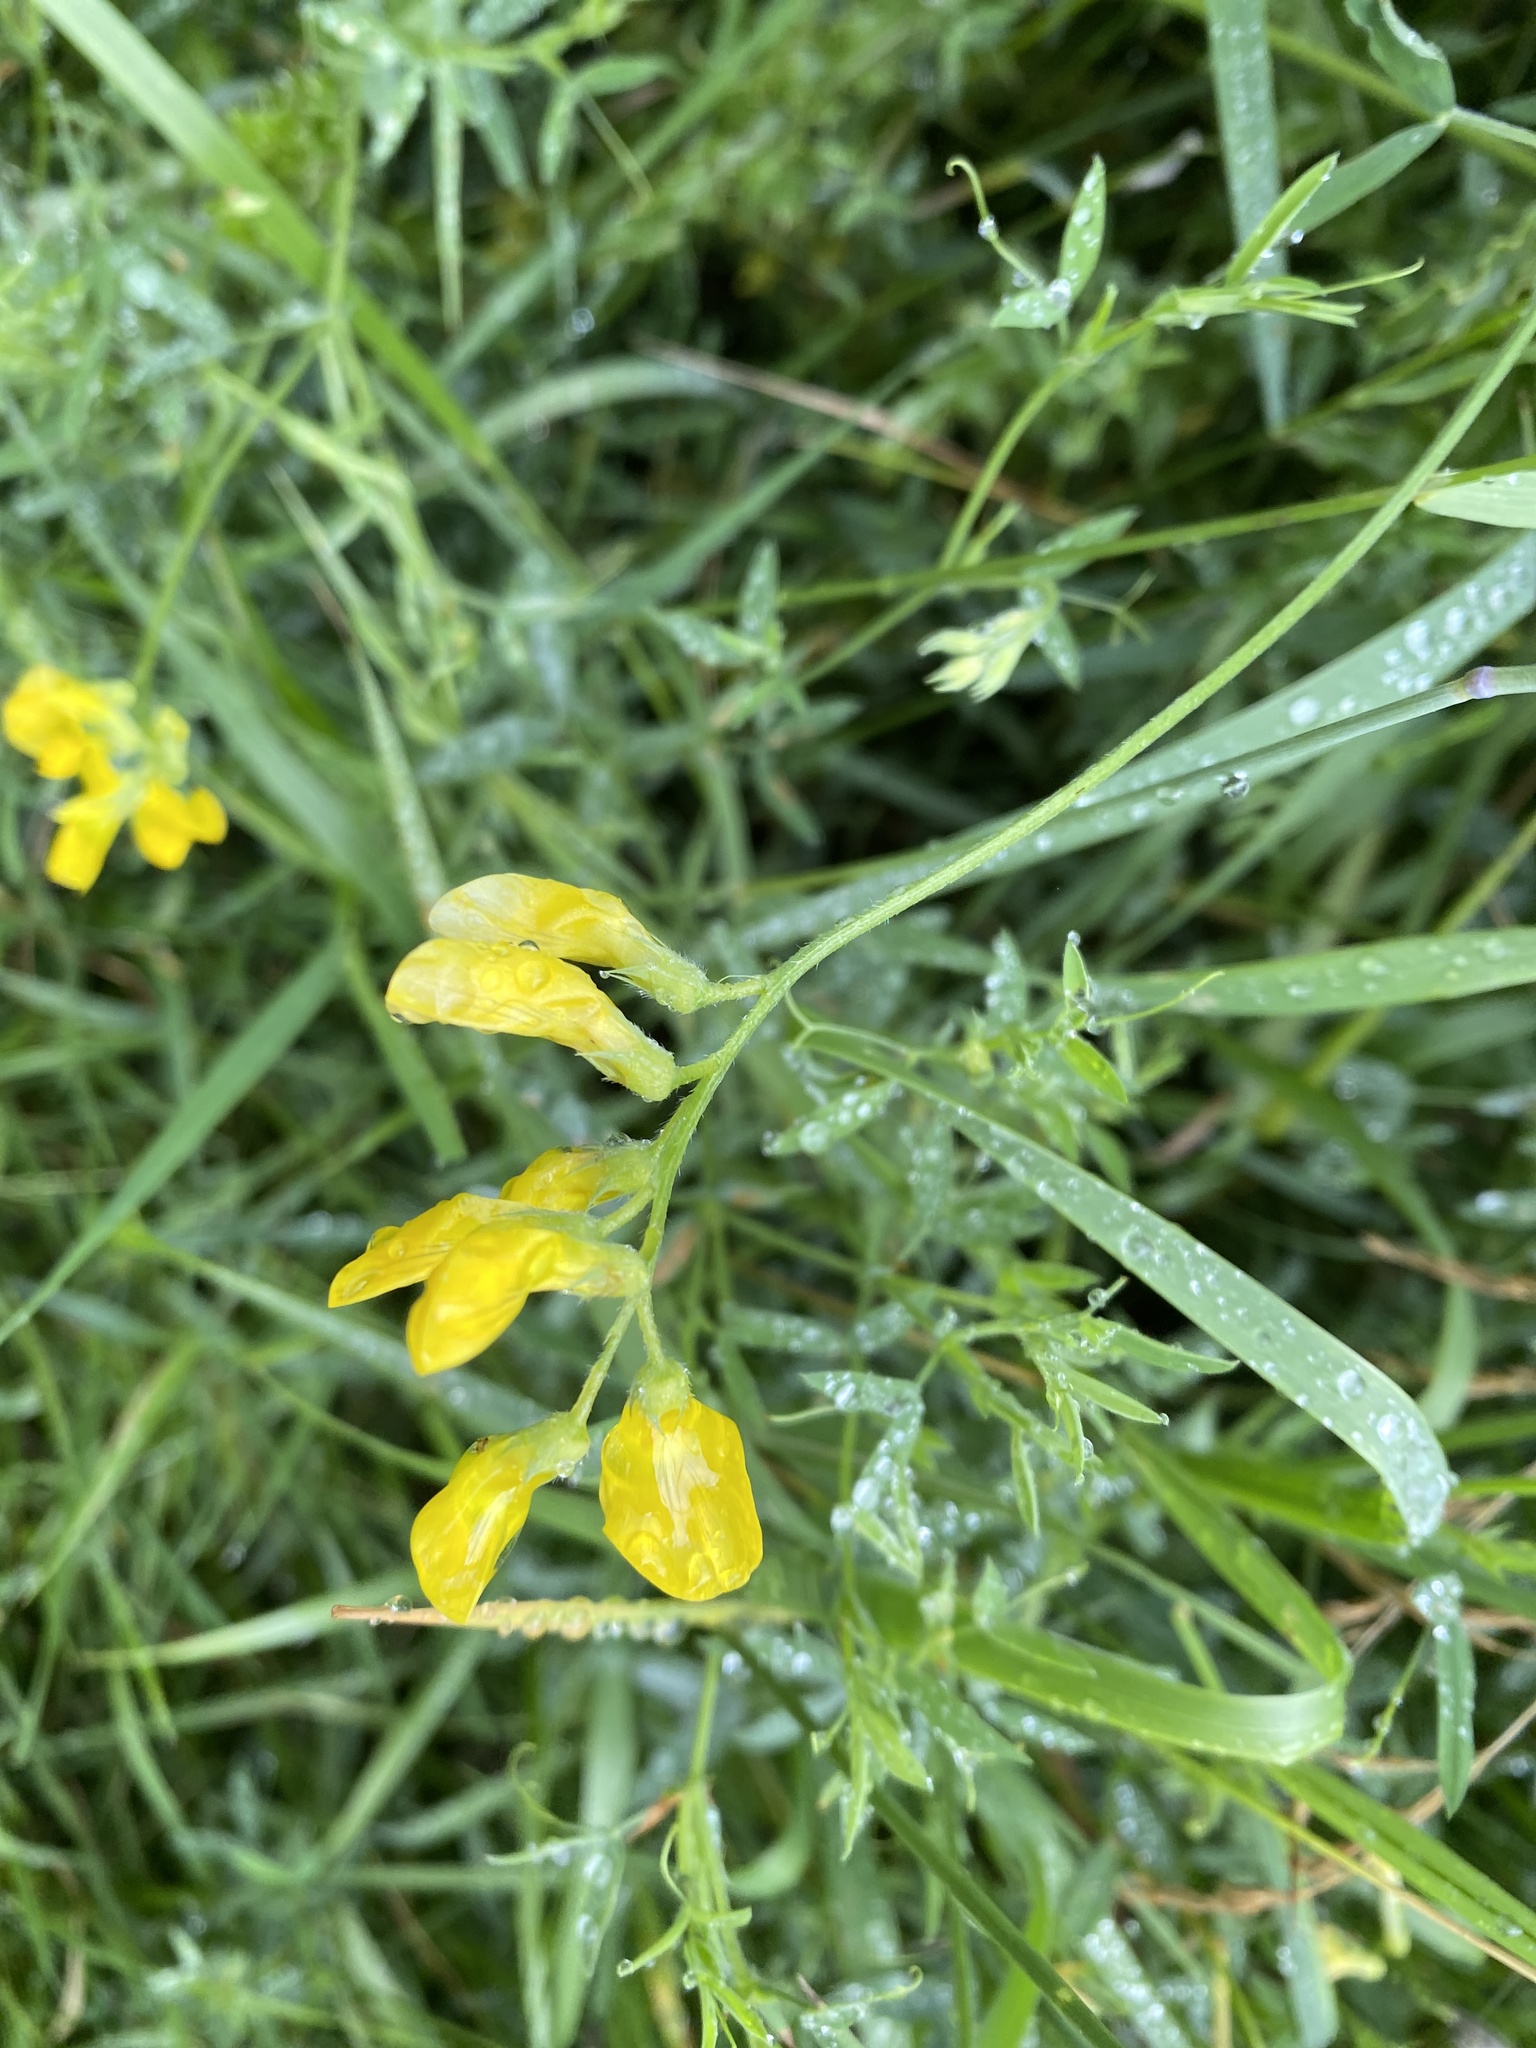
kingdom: Plantae
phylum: Tracheophyta
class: Magnoliopsida
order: Fabales
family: Fabaceae
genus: Lathyrus
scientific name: Lathyrus pratensis
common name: Meadow vetchling
